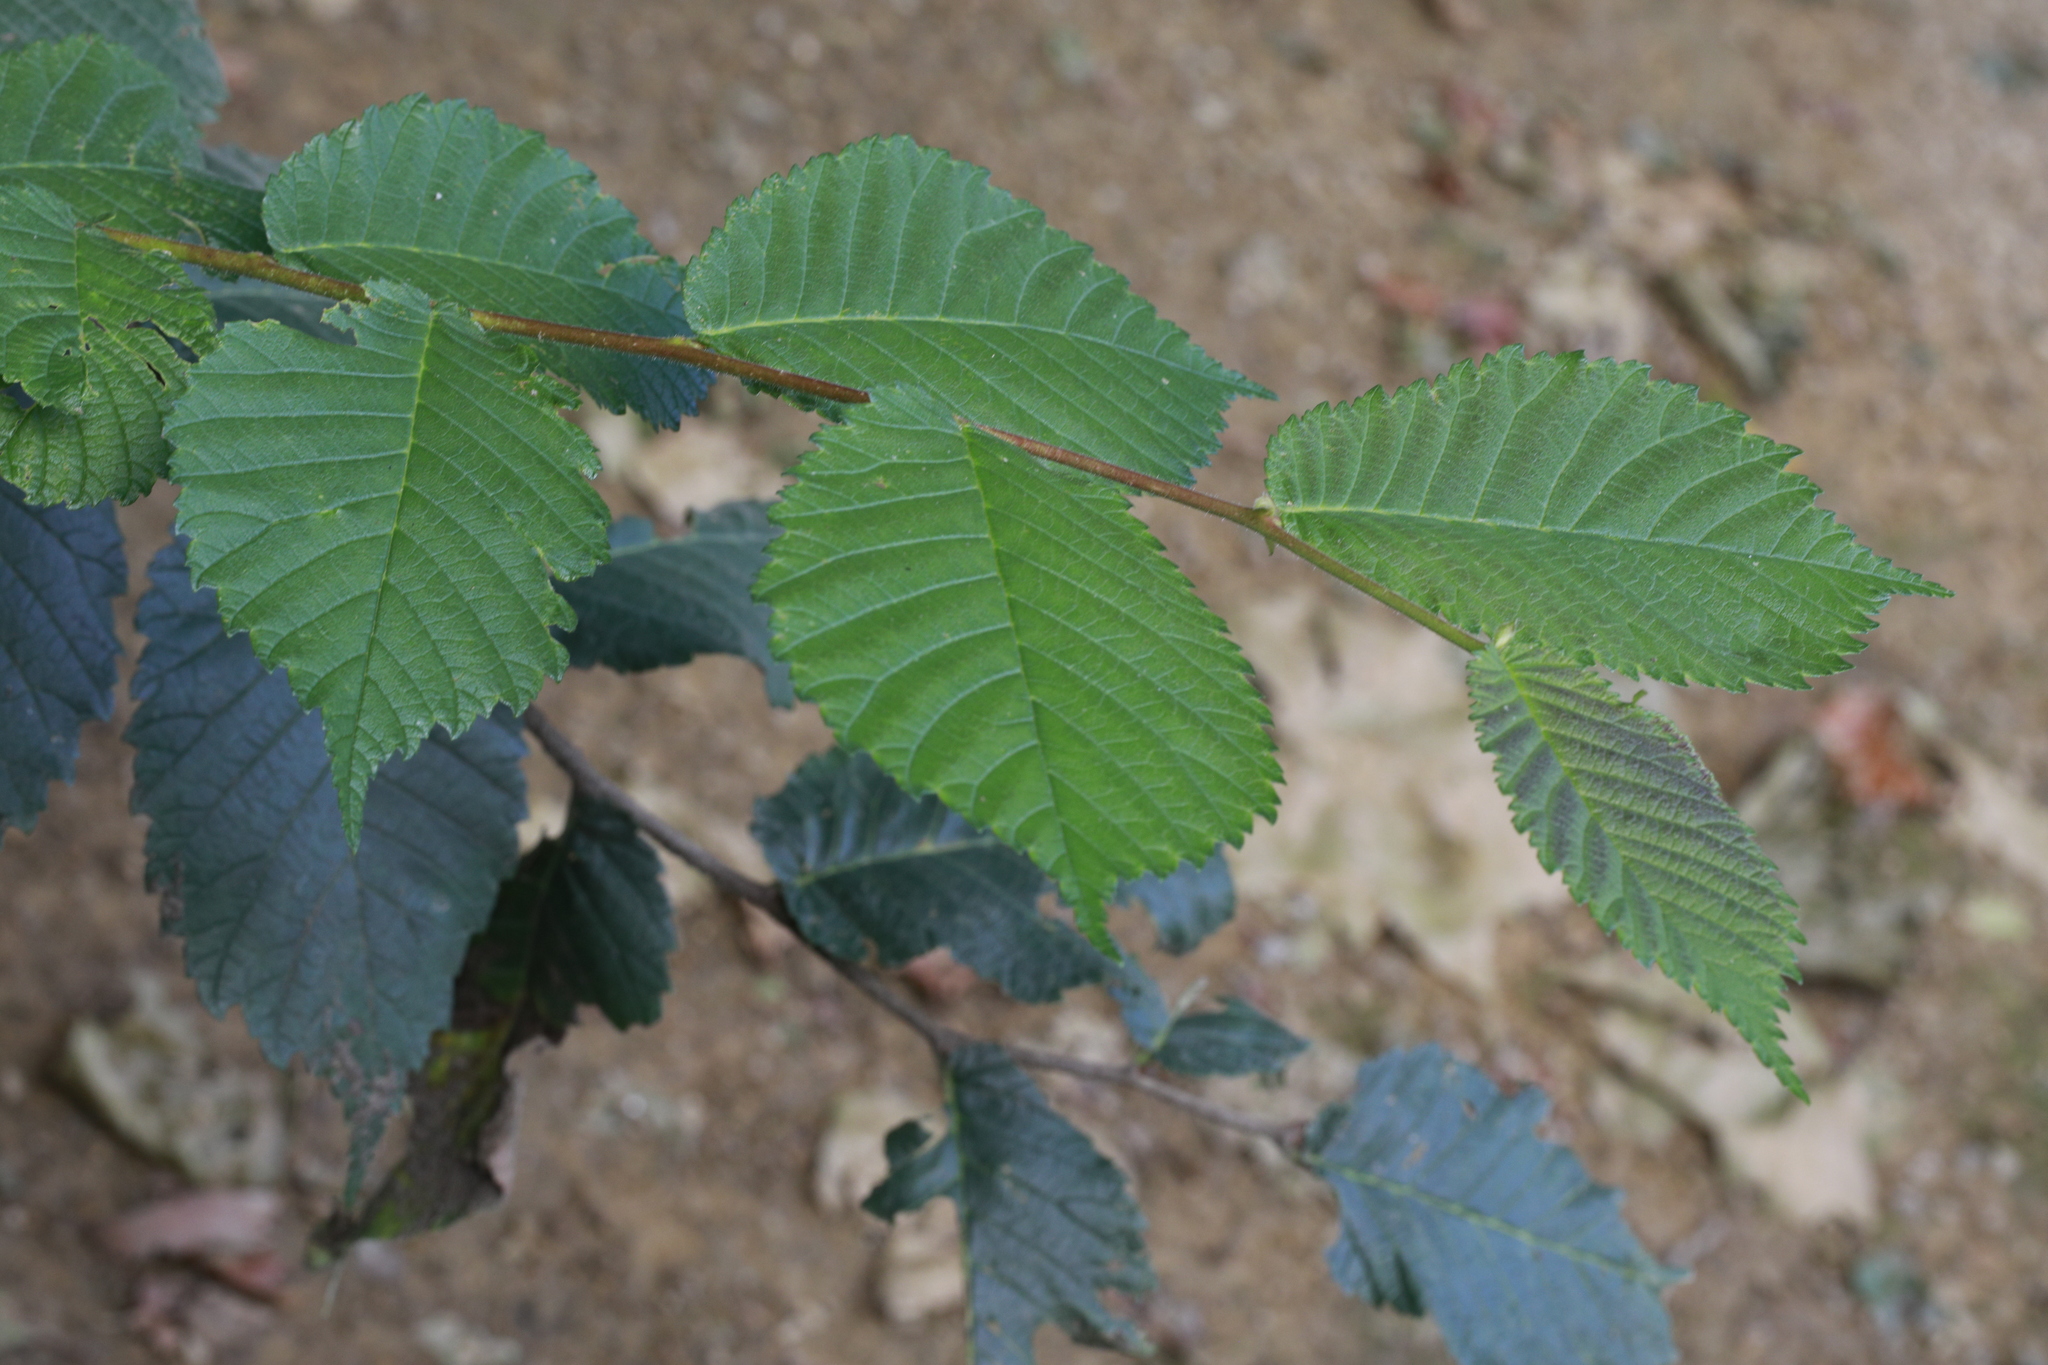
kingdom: Plantae
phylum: Tracheophyta
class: Magnoliopsida
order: Rosales
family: Ulmaceae
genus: Ulmus
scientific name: Ulmus glabra
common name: Wych elm
